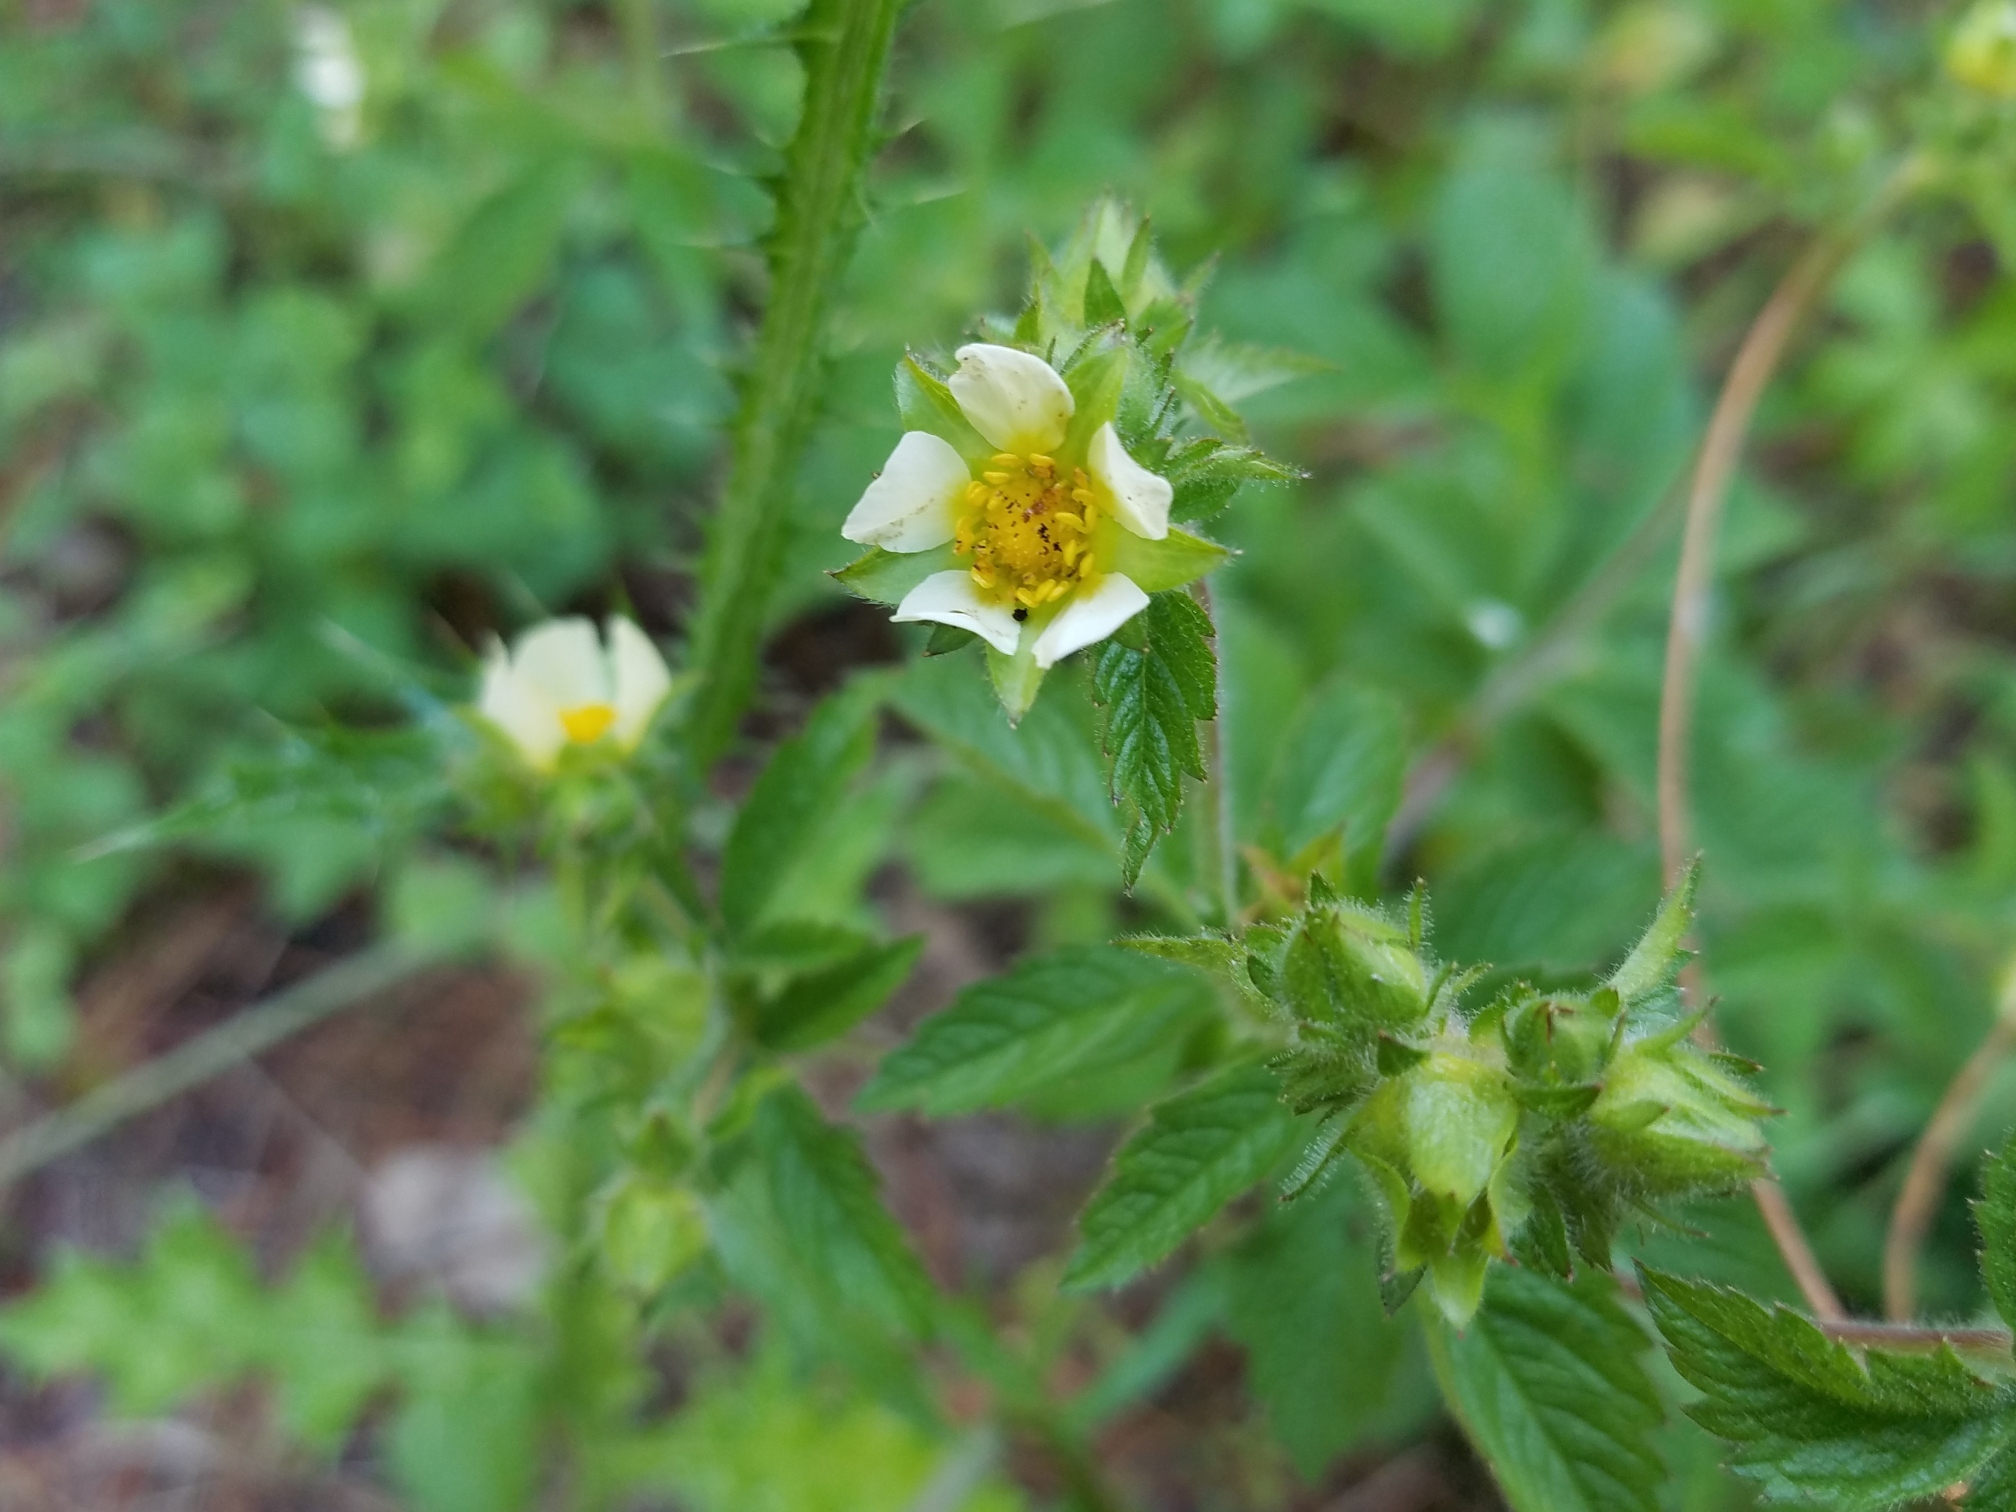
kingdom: Plantae
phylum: Tracheophyta
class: Magnoliopsida
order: Rosales
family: Rosaceae
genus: Drymocallis
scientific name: Drymocallis glandulosa
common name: Sticky cinquefoil
